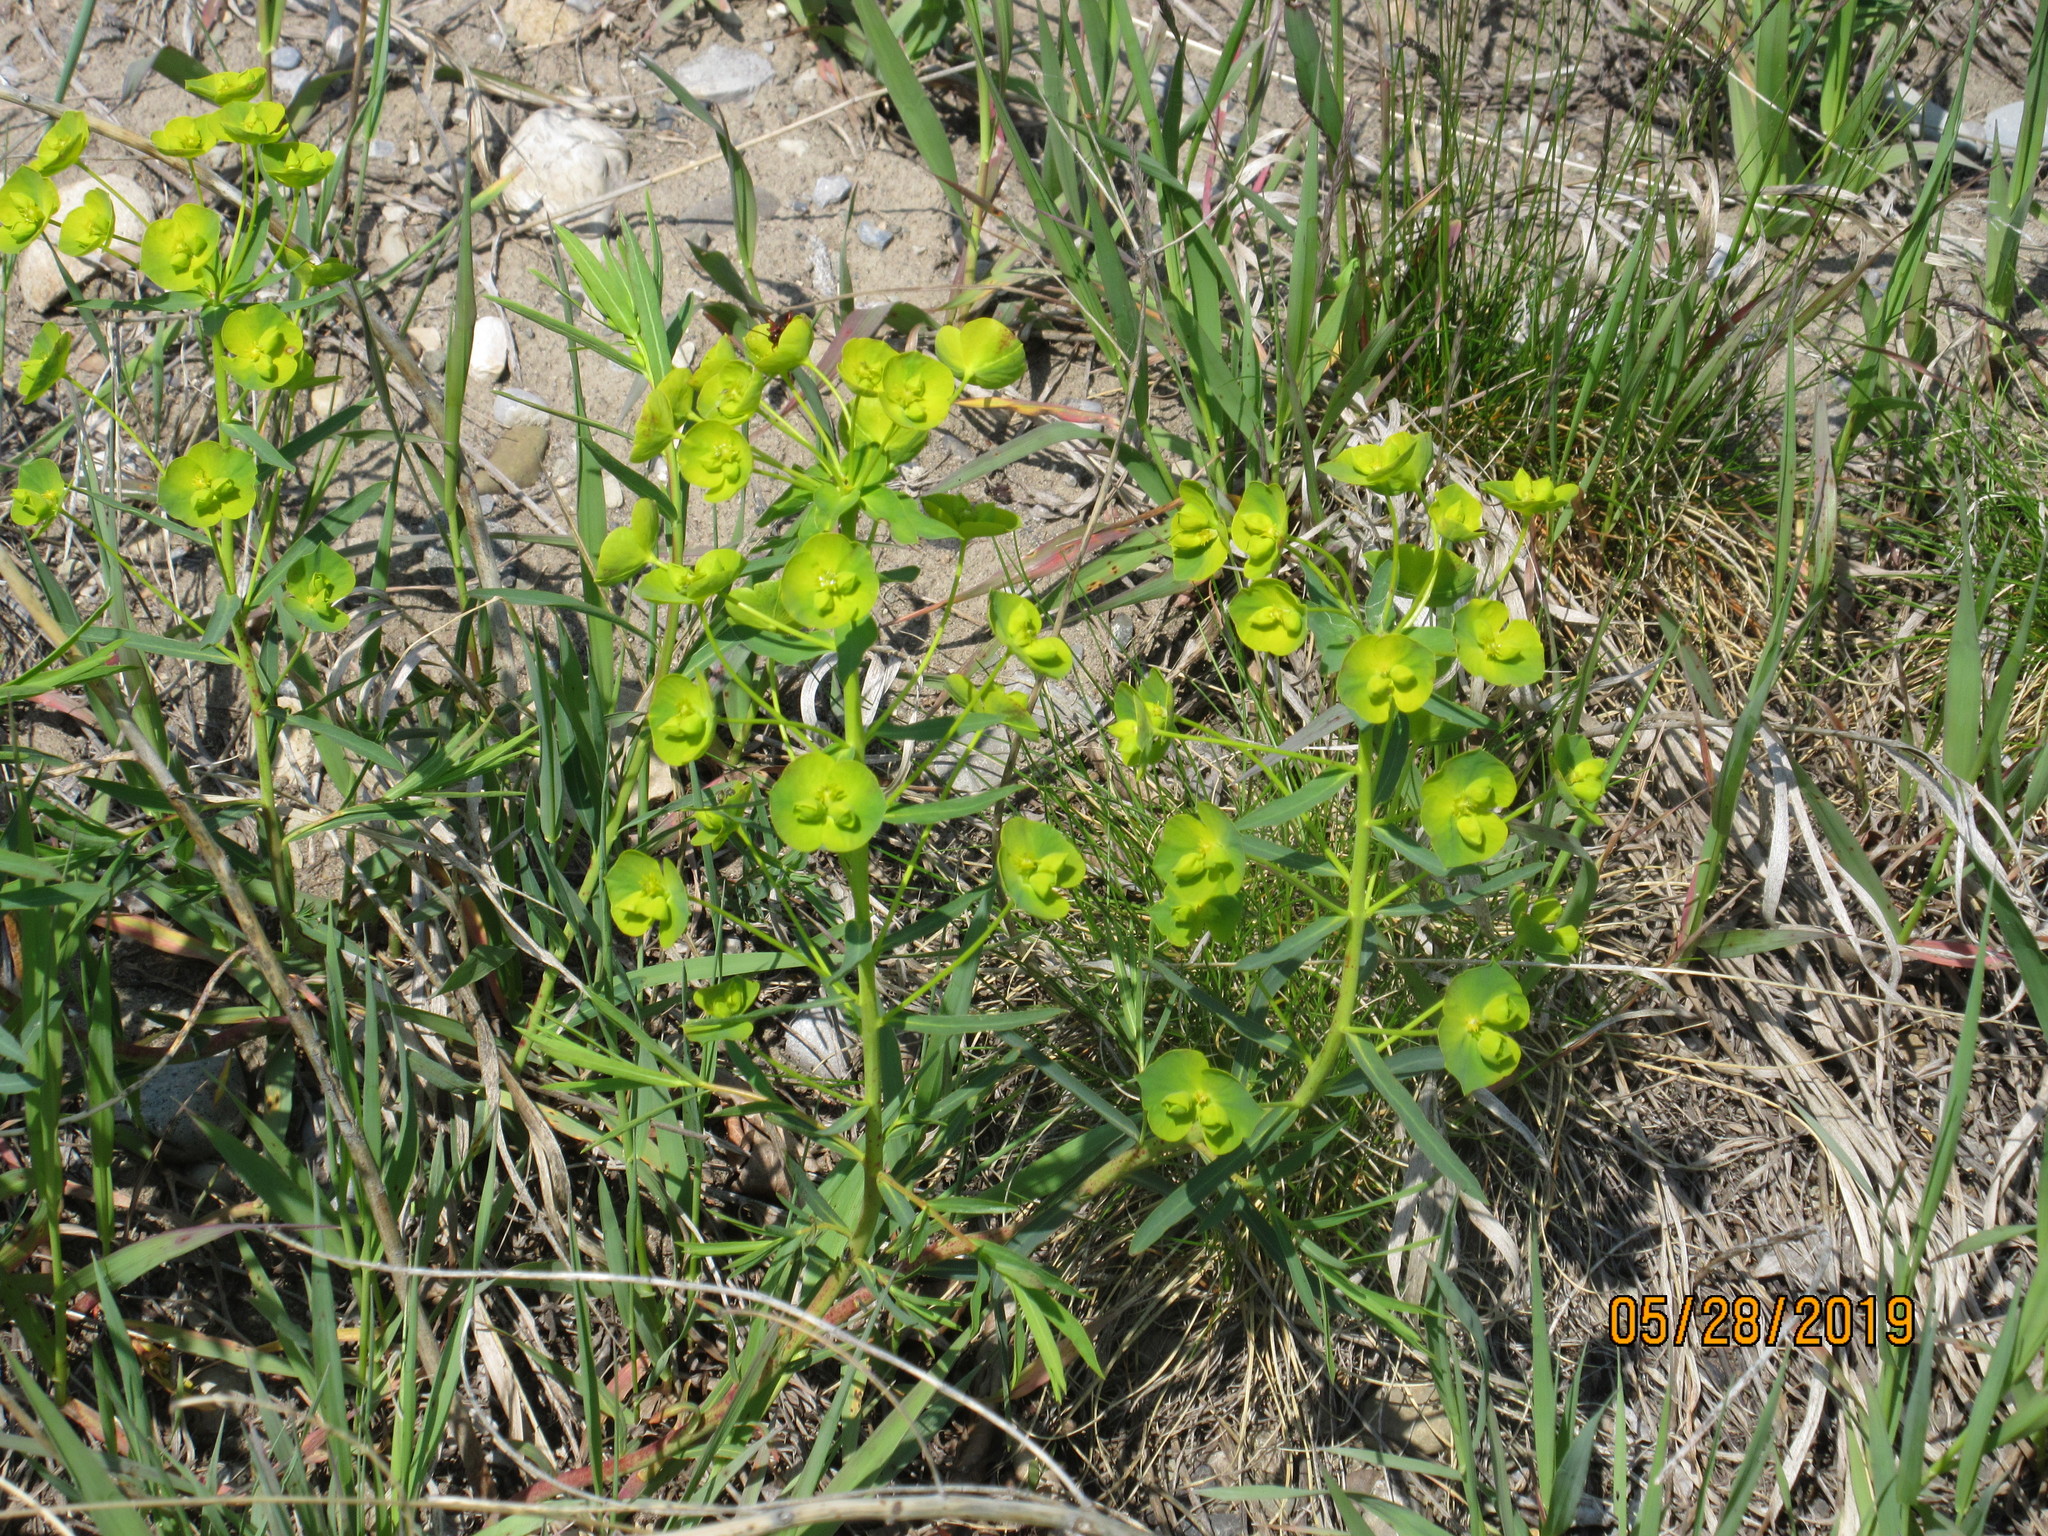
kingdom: Plantae
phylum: Tracheophyta
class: Magnoliopsida
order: Malpighiales
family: Euphorbiaceae
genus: Euphorbia
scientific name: Euphorbia virgata
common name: Leafy spurge
